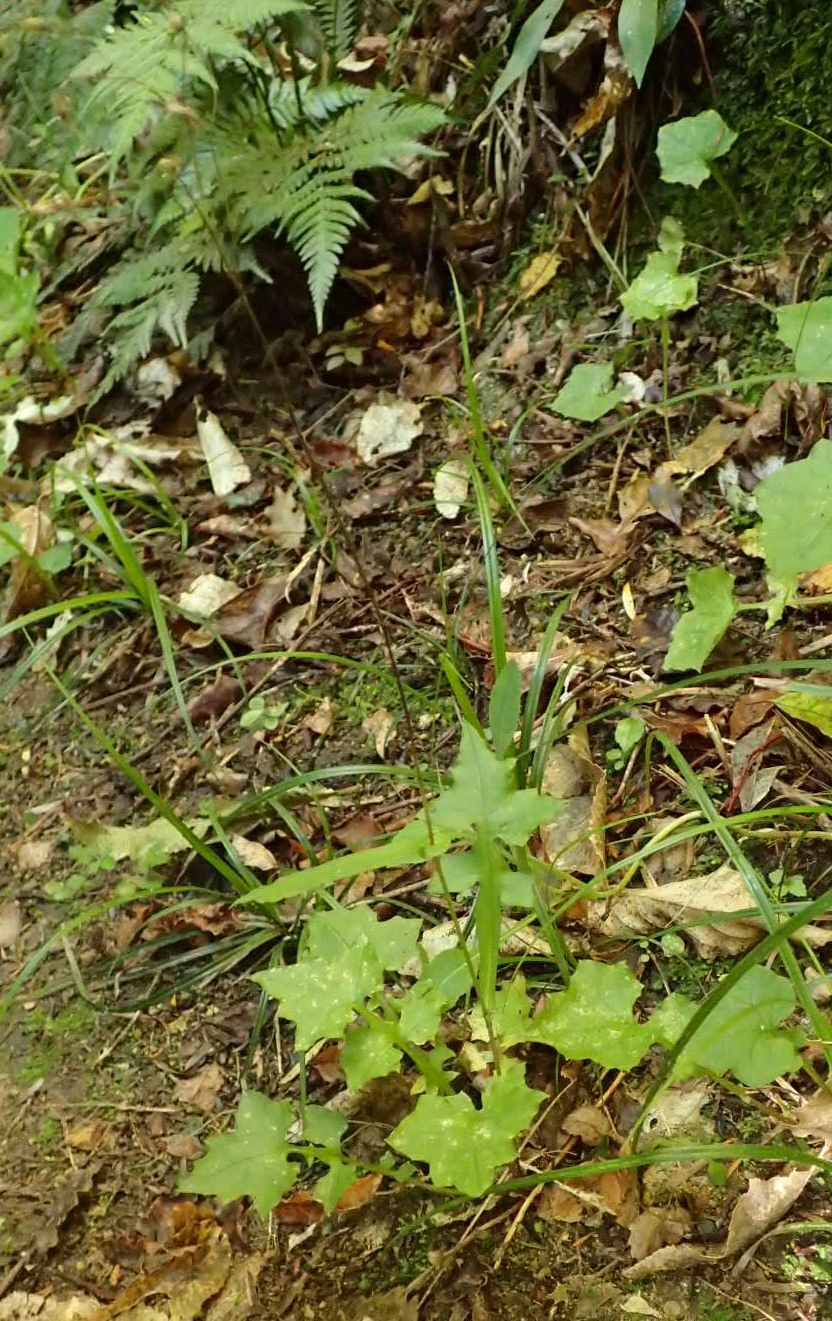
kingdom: Plantae
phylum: Tracheophyta
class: Magnoliopsida
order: Asterales
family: Asteraceae
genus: Mycelis
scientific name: Mycelis muralis
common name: Wall lettuce
